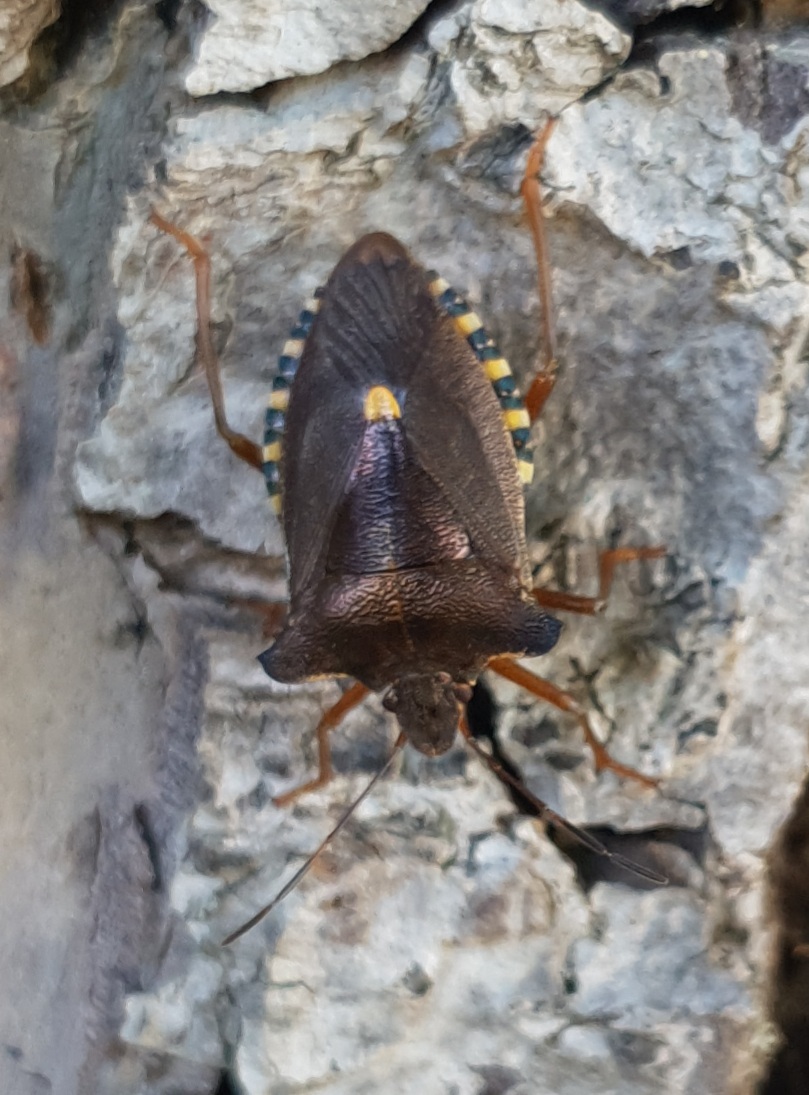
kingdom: Animalia
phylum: Arthropoda
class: Insecta
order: Hemiptera
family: Pentatomidae
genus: Pentatoma
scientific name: Pentatoma rufipes
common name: Forest bug
